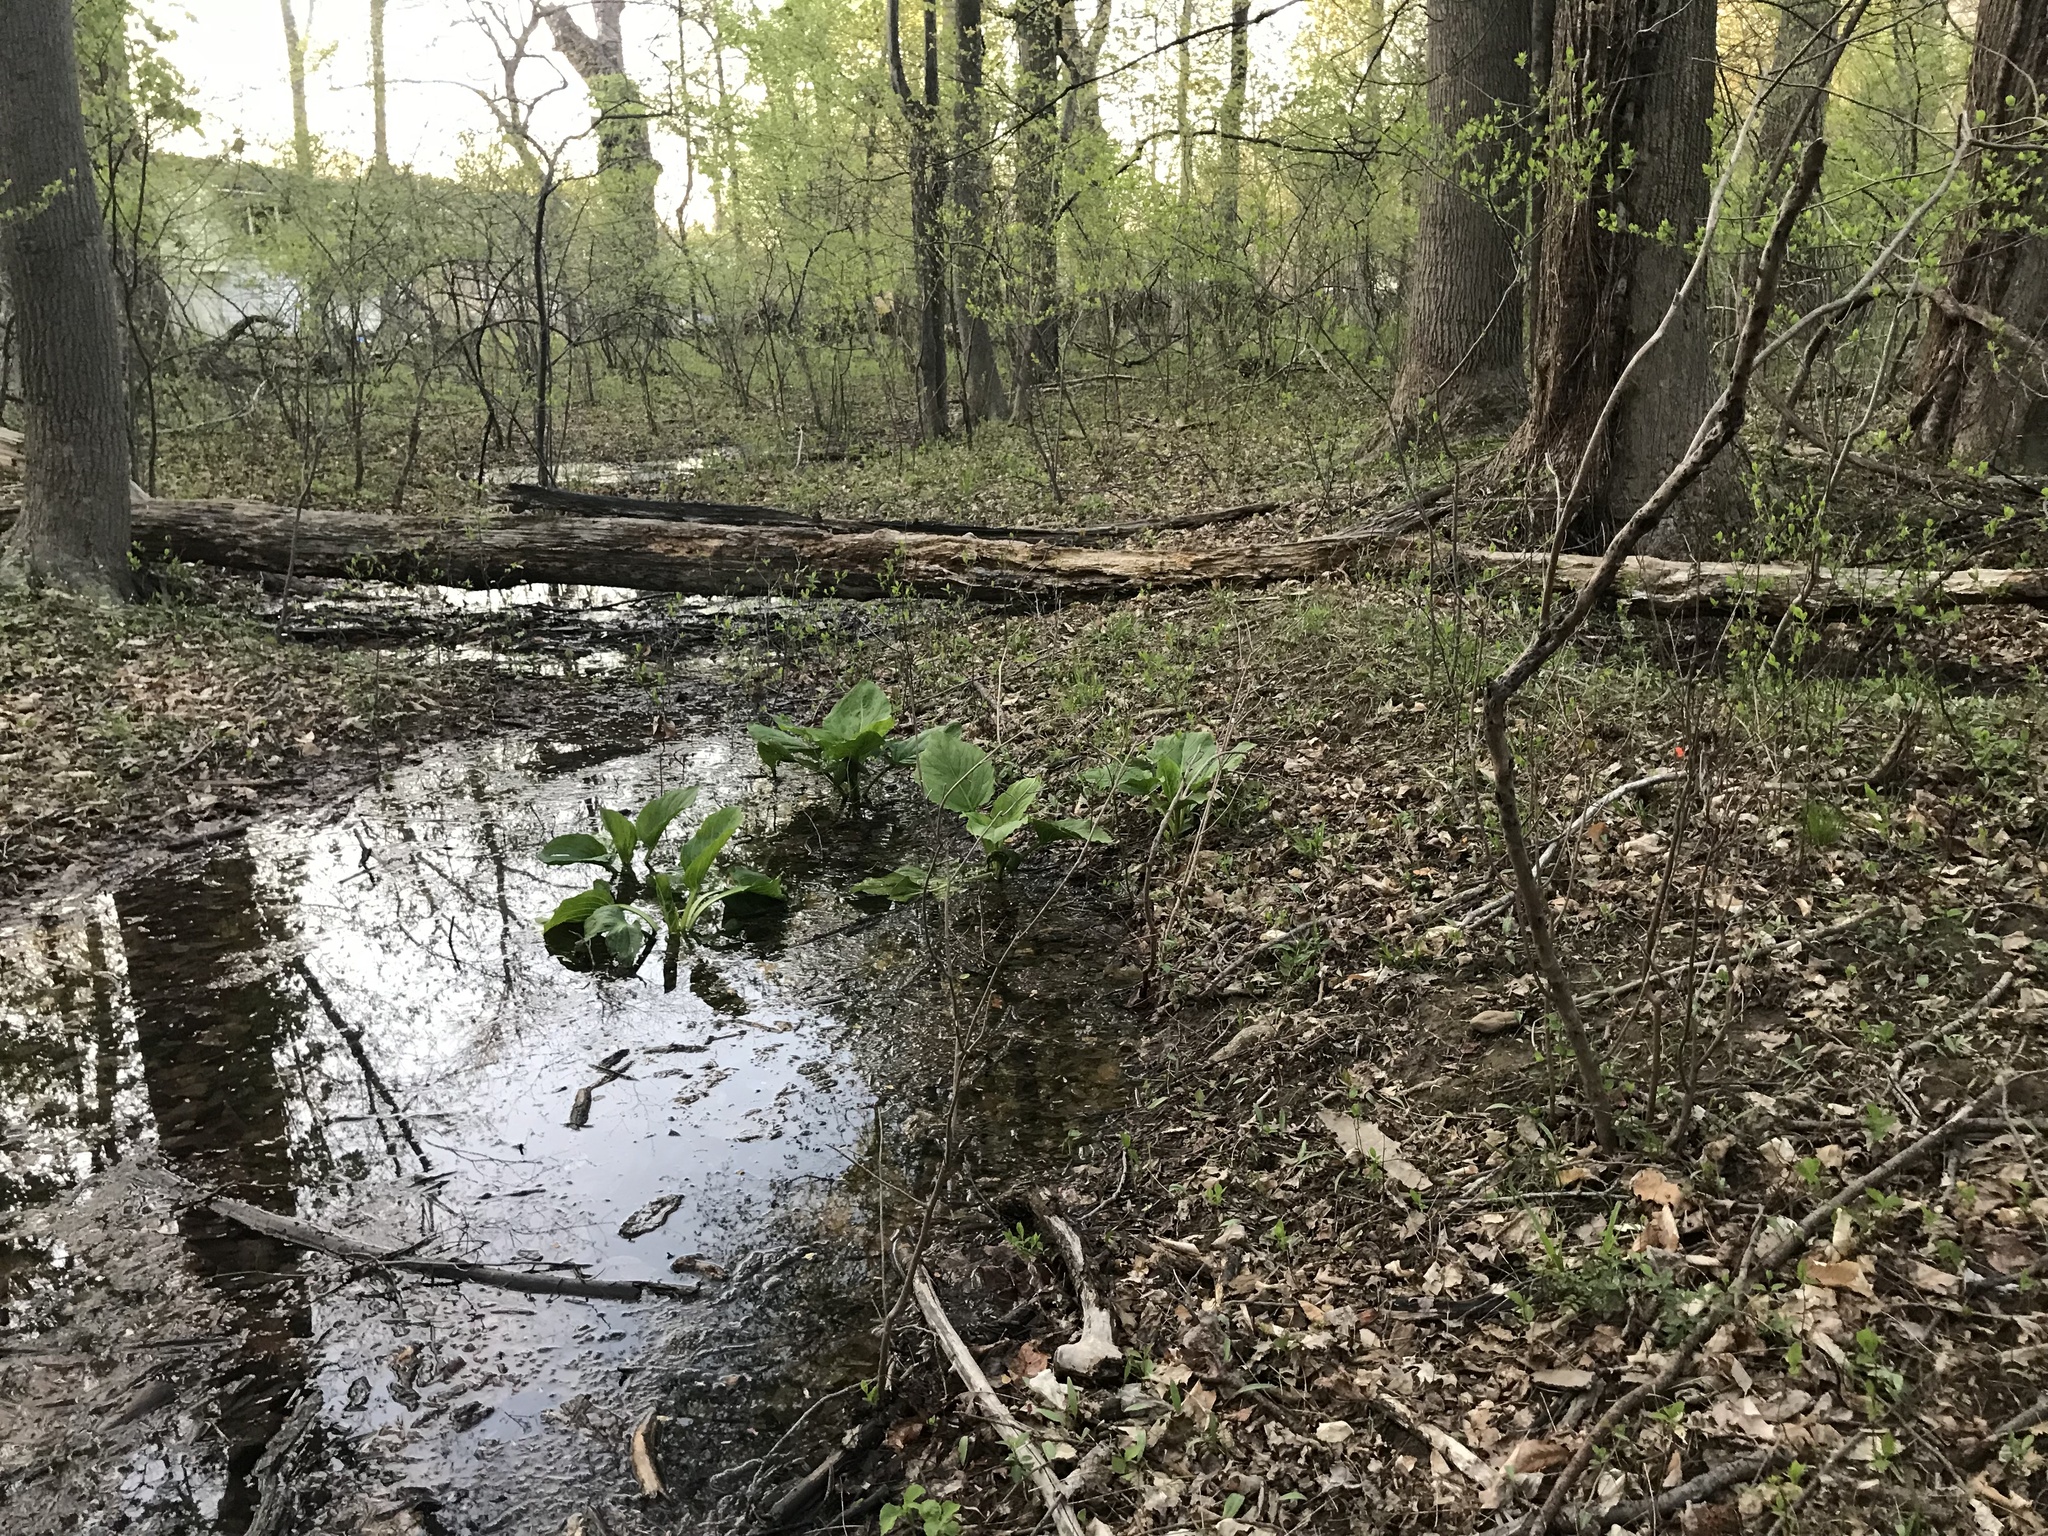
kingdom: Plantae
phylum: Tracheophyta
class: Liliopsida
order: Alismatales
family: Araceae
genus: Symplocarpus
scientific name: Symplocarpus foetidus
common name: Eastern skunk cabbage
